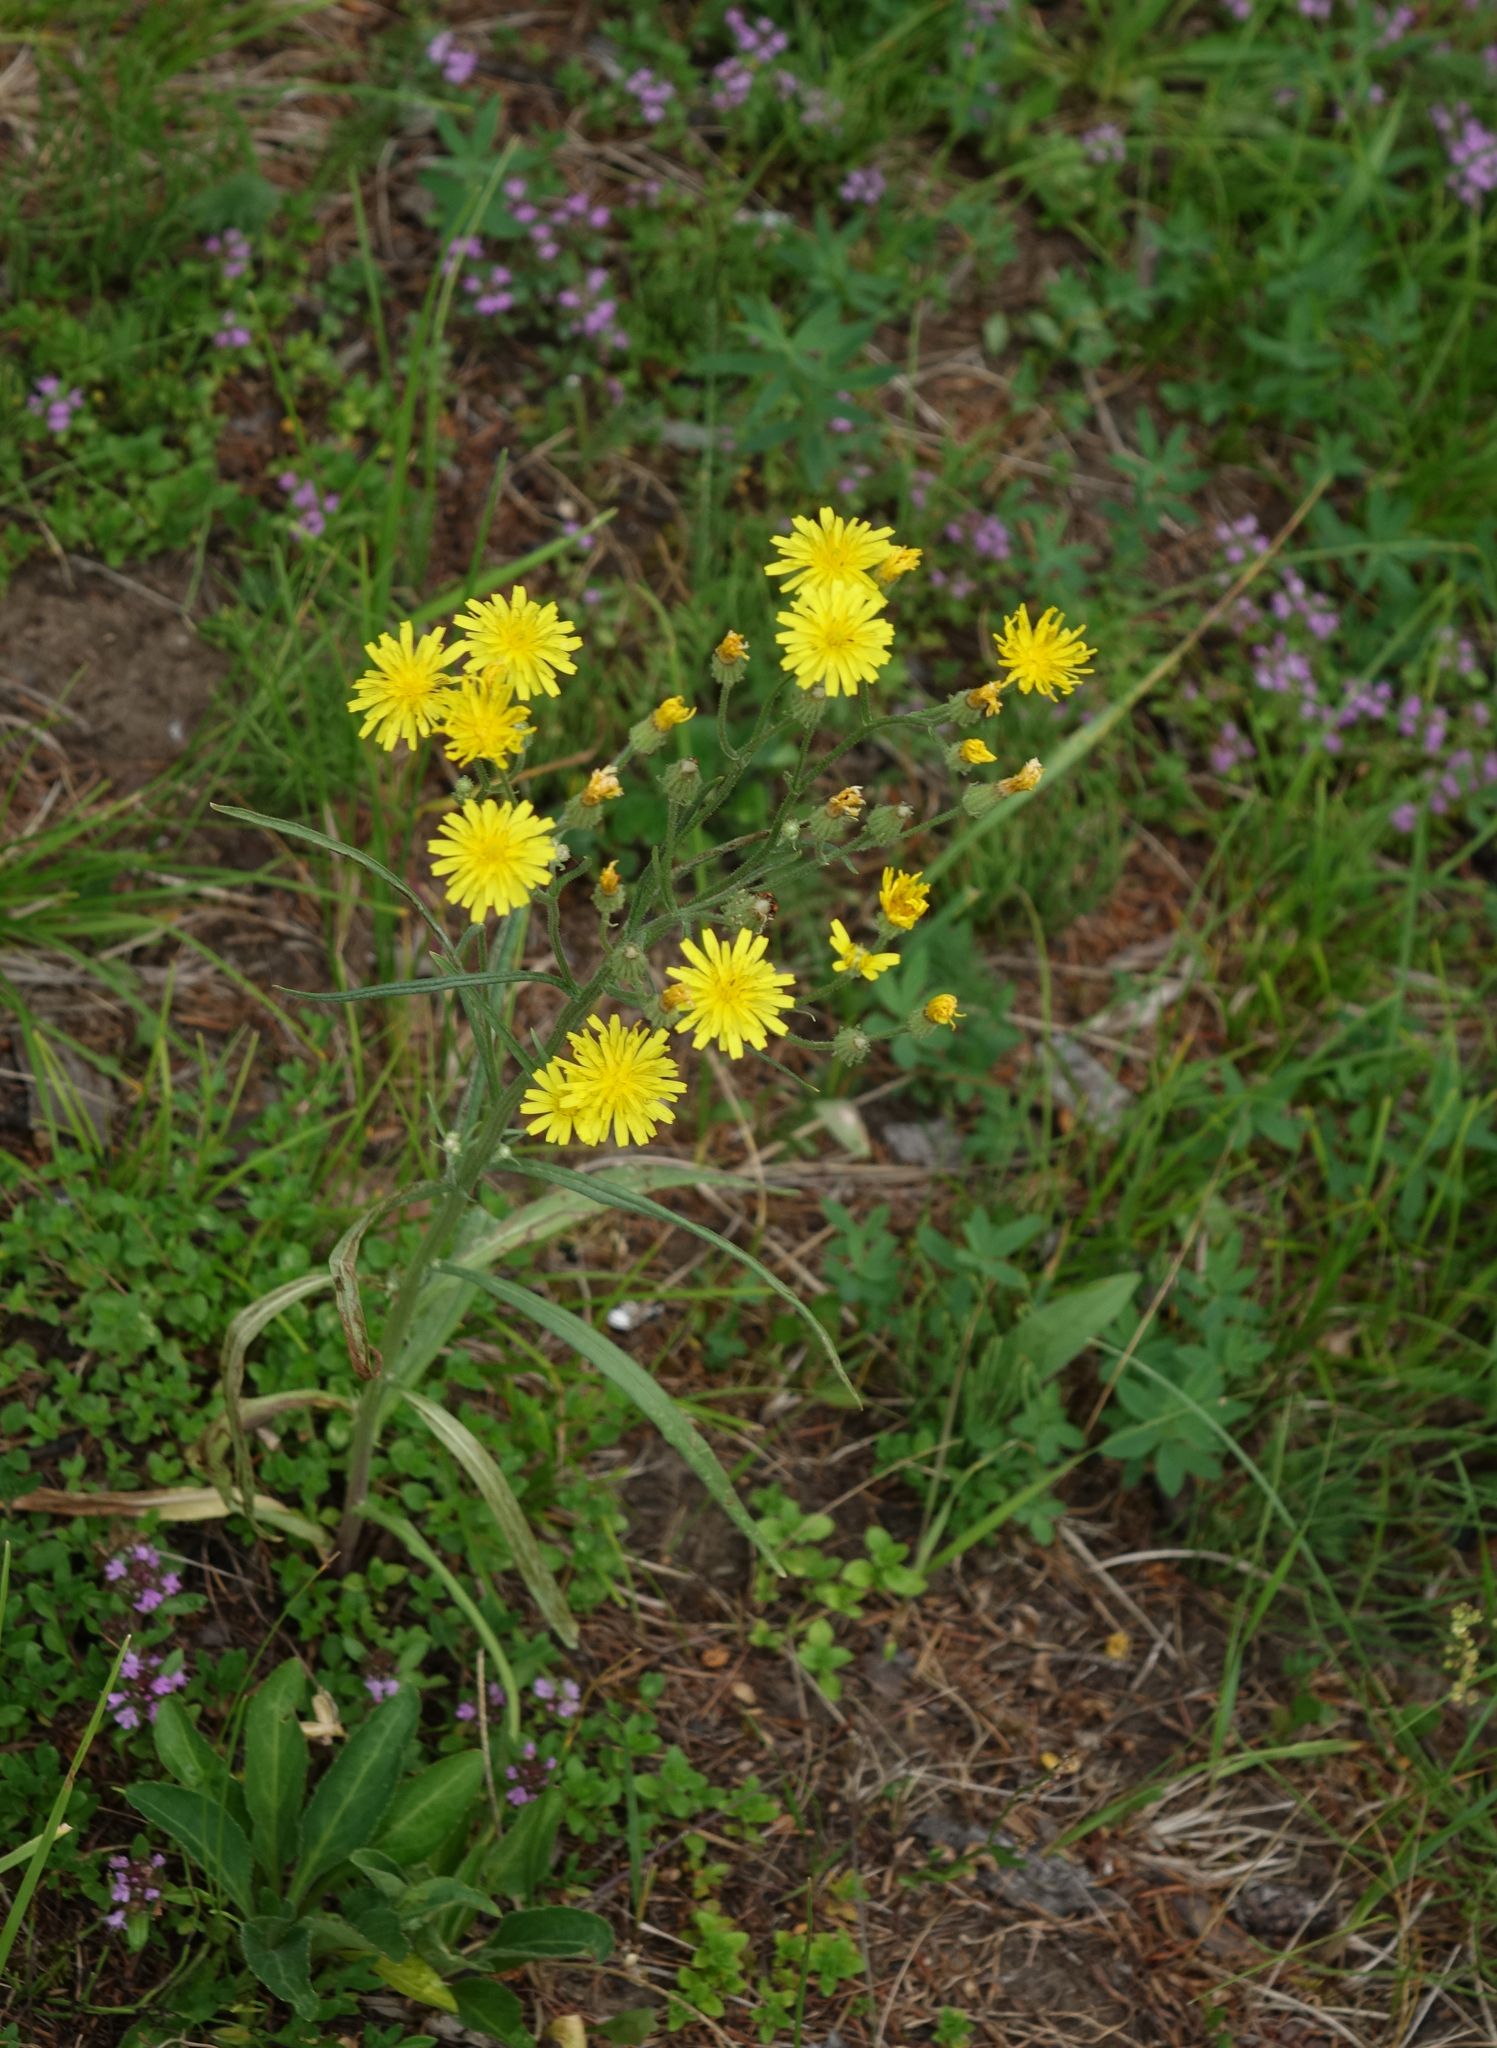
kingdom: Plantae
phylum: Tracheophyta
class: Magnoliopsida
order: Asterales
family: Asteraceae
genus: Crepis
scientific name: Crepis tectorum
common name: Narrow-leaved hawk's-beard
